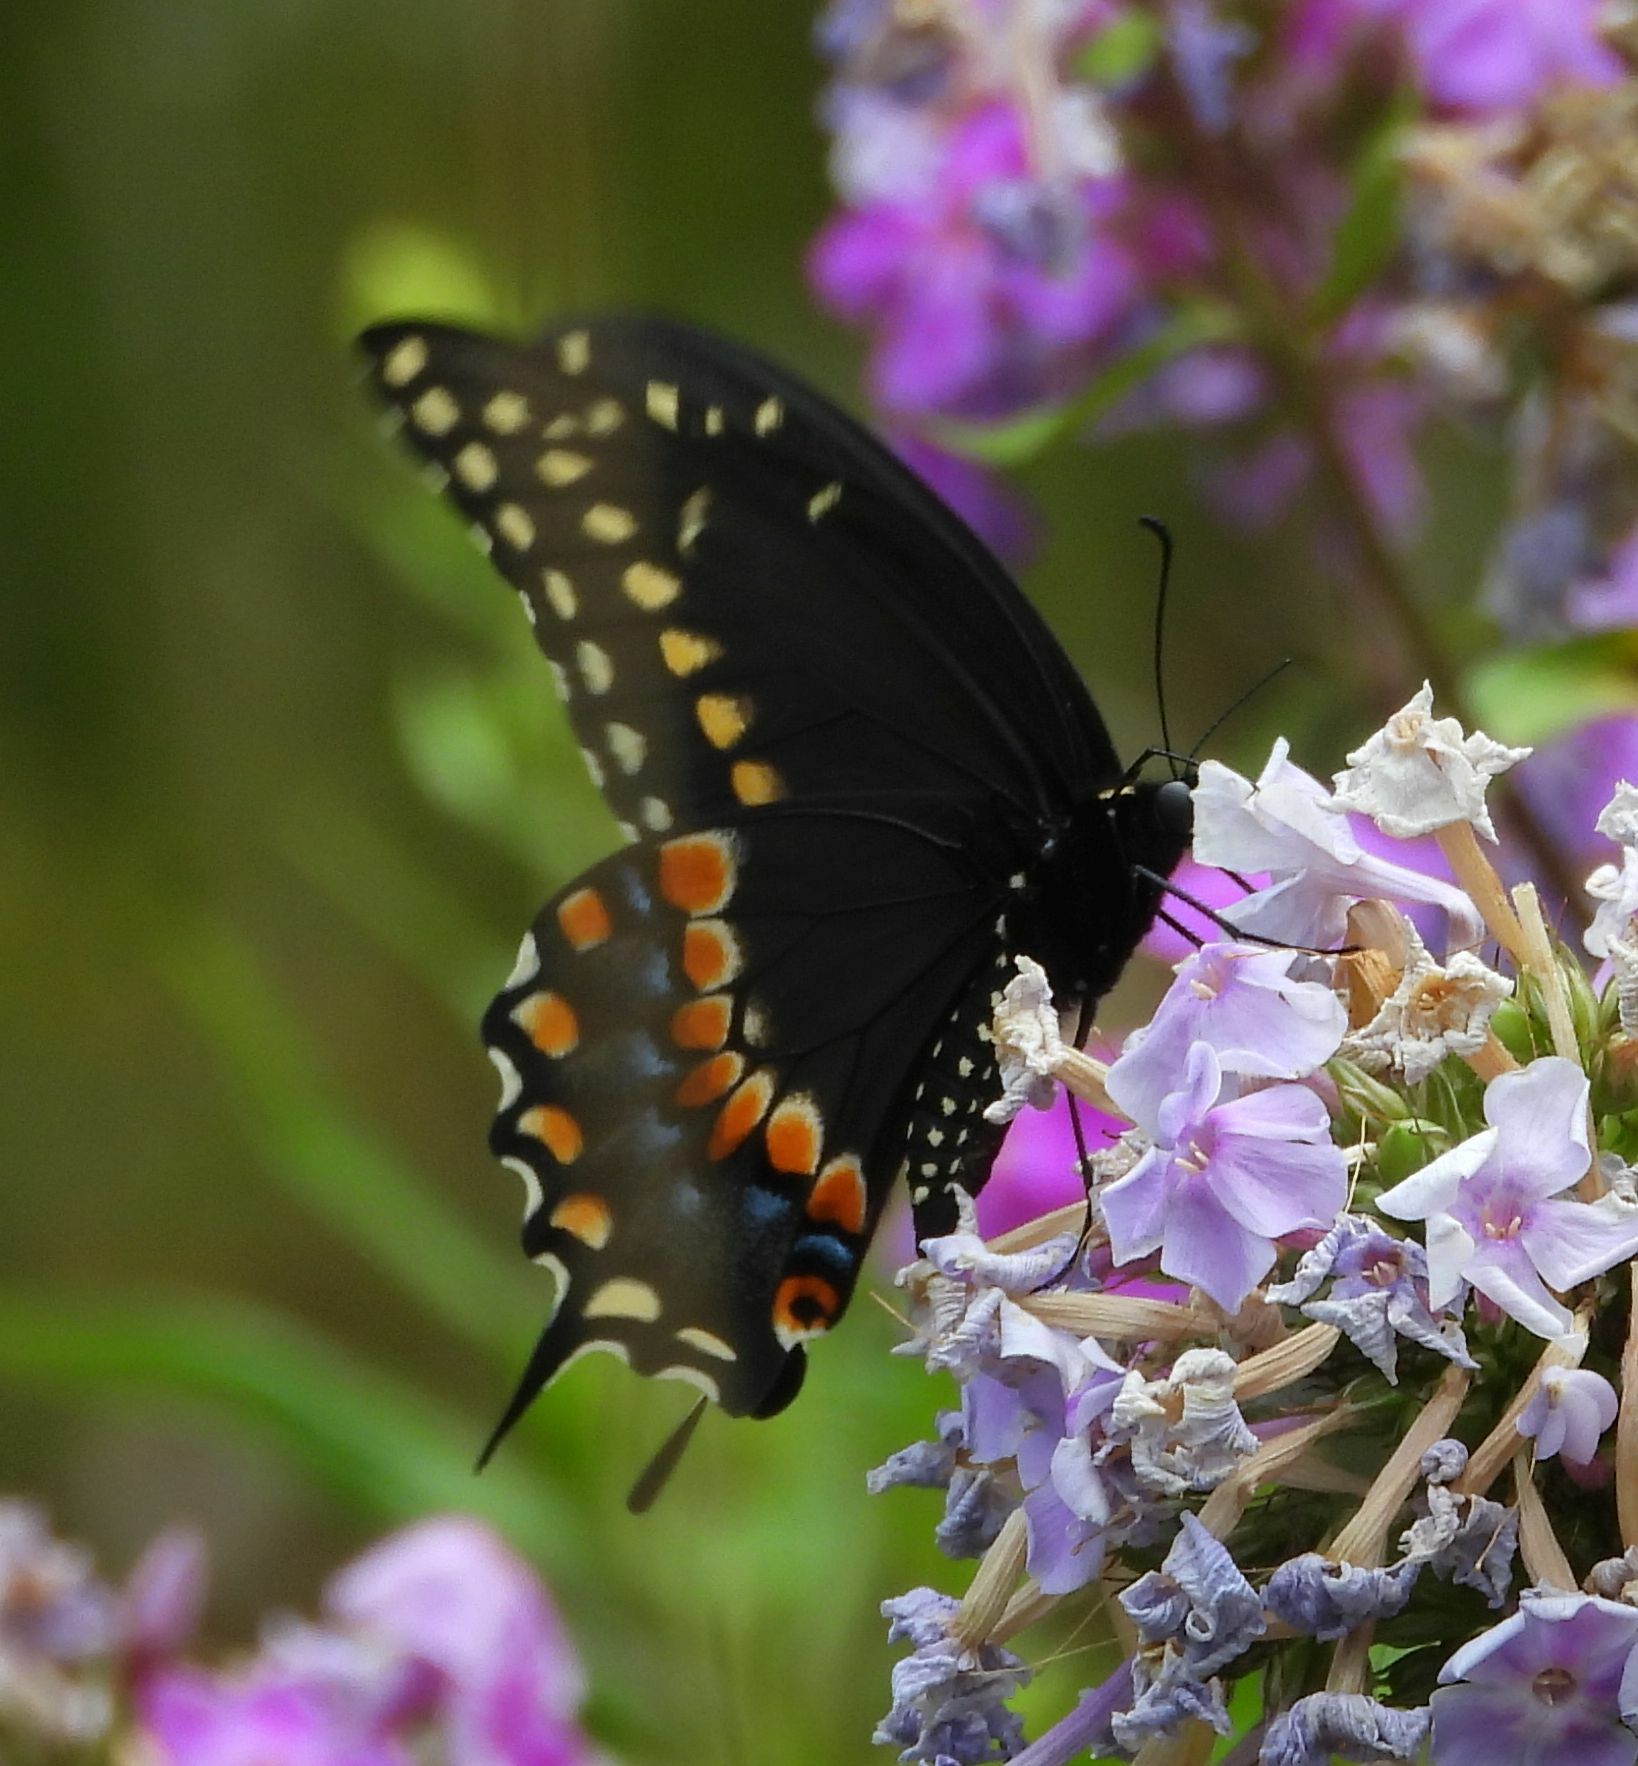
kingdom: Animalia
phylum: Arthropoda
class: Insecta
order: Lepidoptera
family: Papilionidae
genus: Papilio
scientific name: Papilio polyxenes
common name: Black swallowtail
